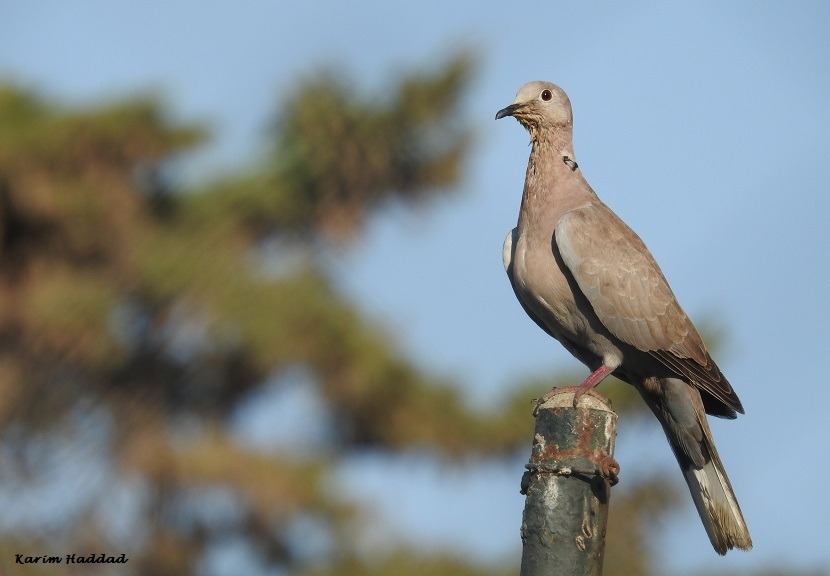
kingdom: Animalia
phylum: Chordata
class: Aves
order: Columbiformes
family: Columbidae
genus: Streptopelia
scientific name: Streptopelia decaocto
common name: Eurasian collared dove
